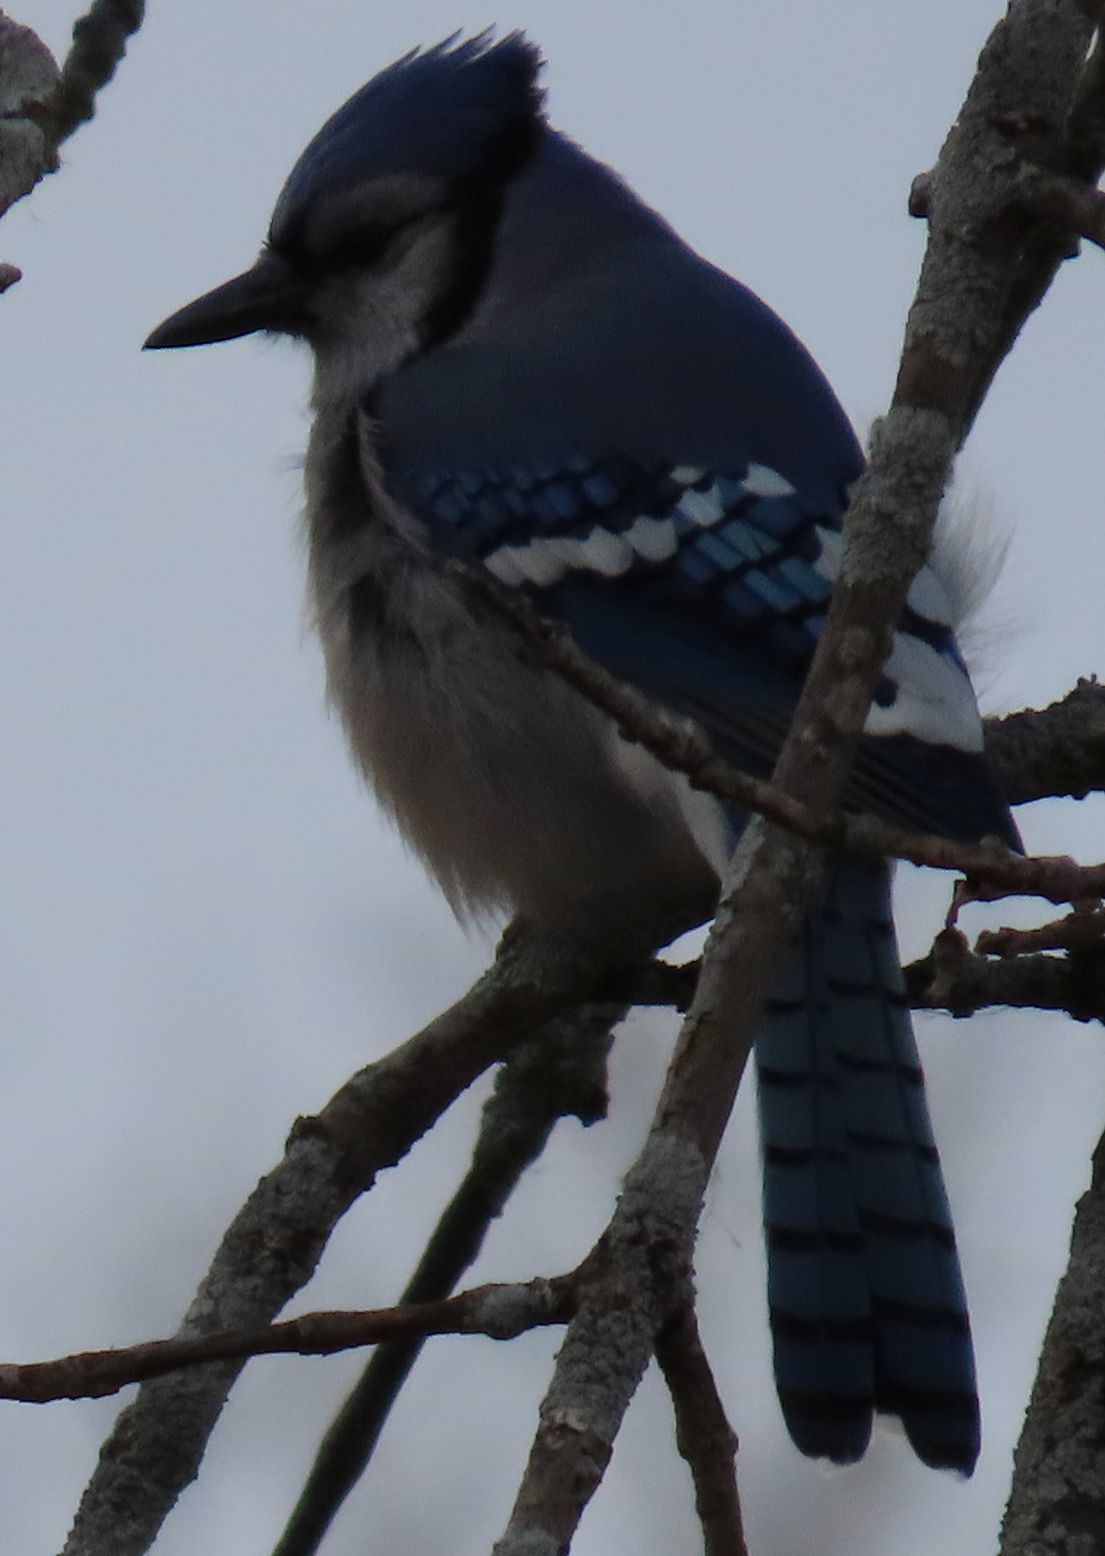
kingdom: Animalia
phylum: Chordata
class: Aves
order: Passeriformes
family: Corvidae
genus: Cyanocitta
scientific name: Cyanocitta cristata
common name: Blue jay
